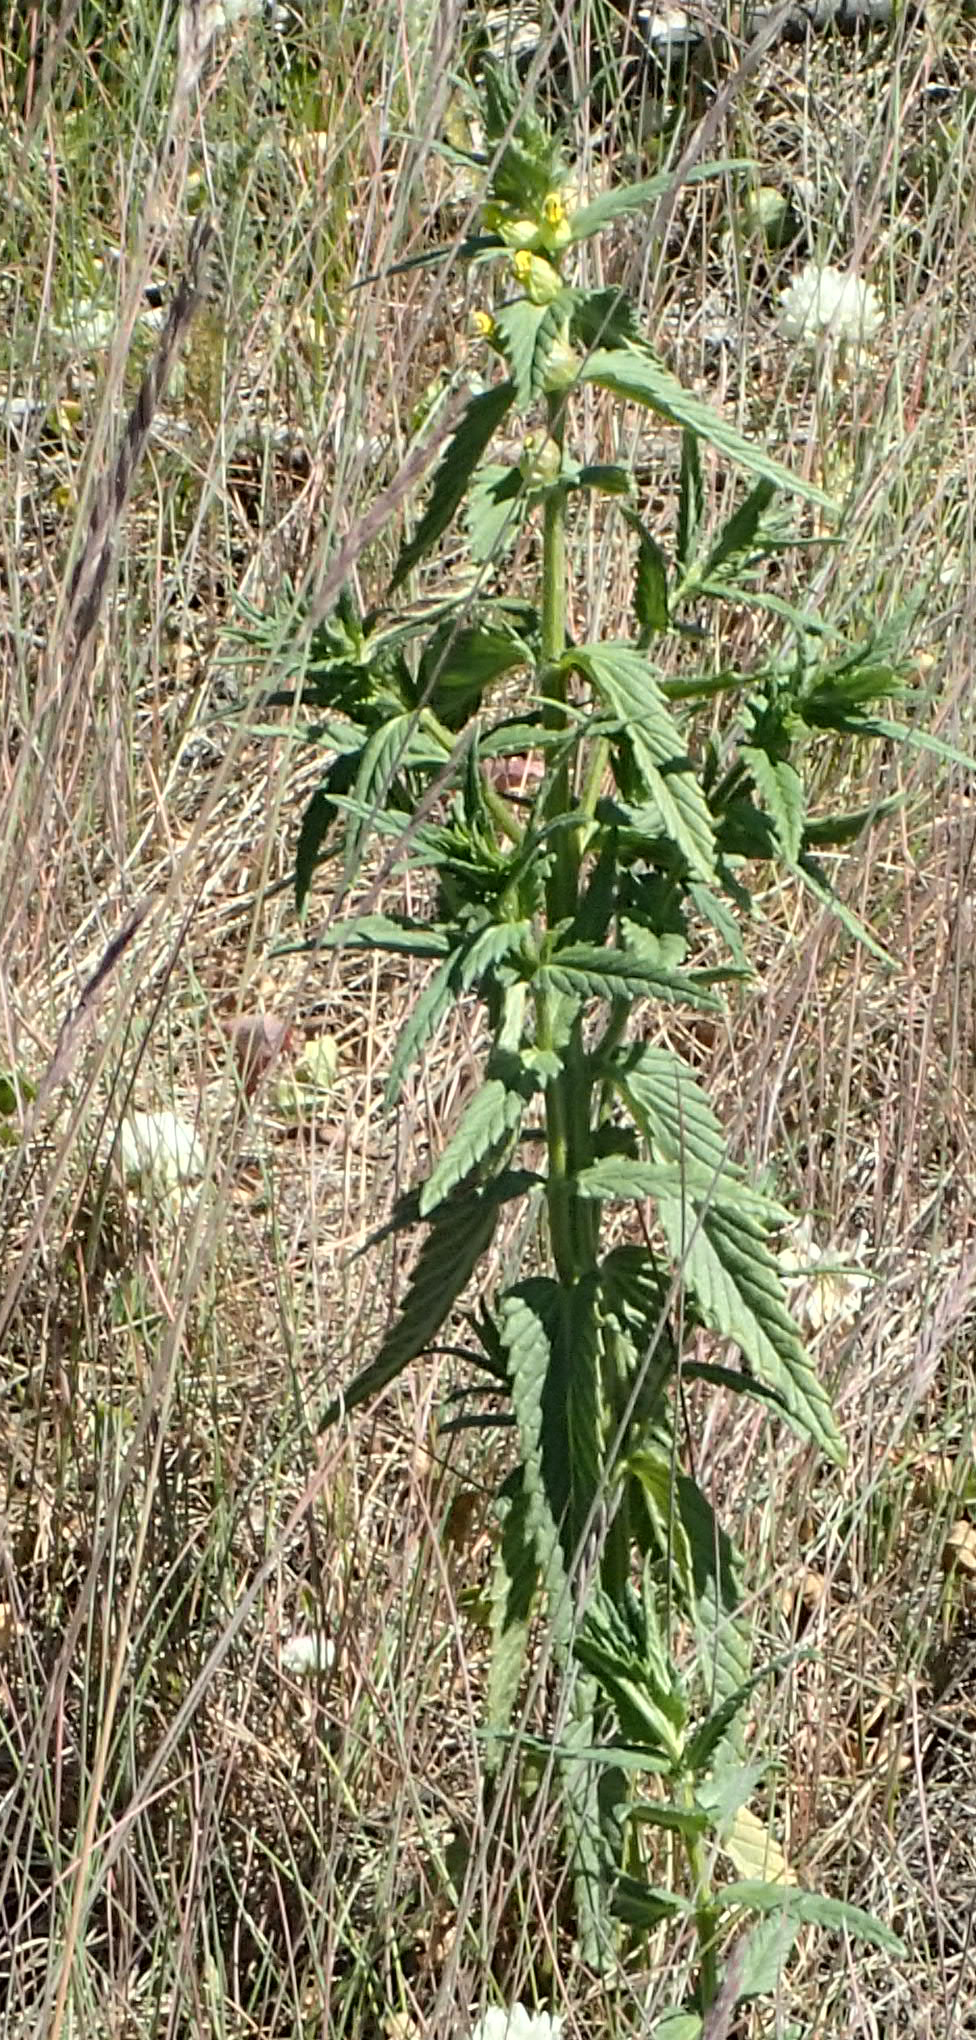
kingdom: Plantae
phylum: Tracheophyta
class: Magnoliopsida
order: Lamiales
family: Orobanchaceae
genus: Rhinanthus
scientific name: Rhinanthus minor
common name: Yellow-rattle
